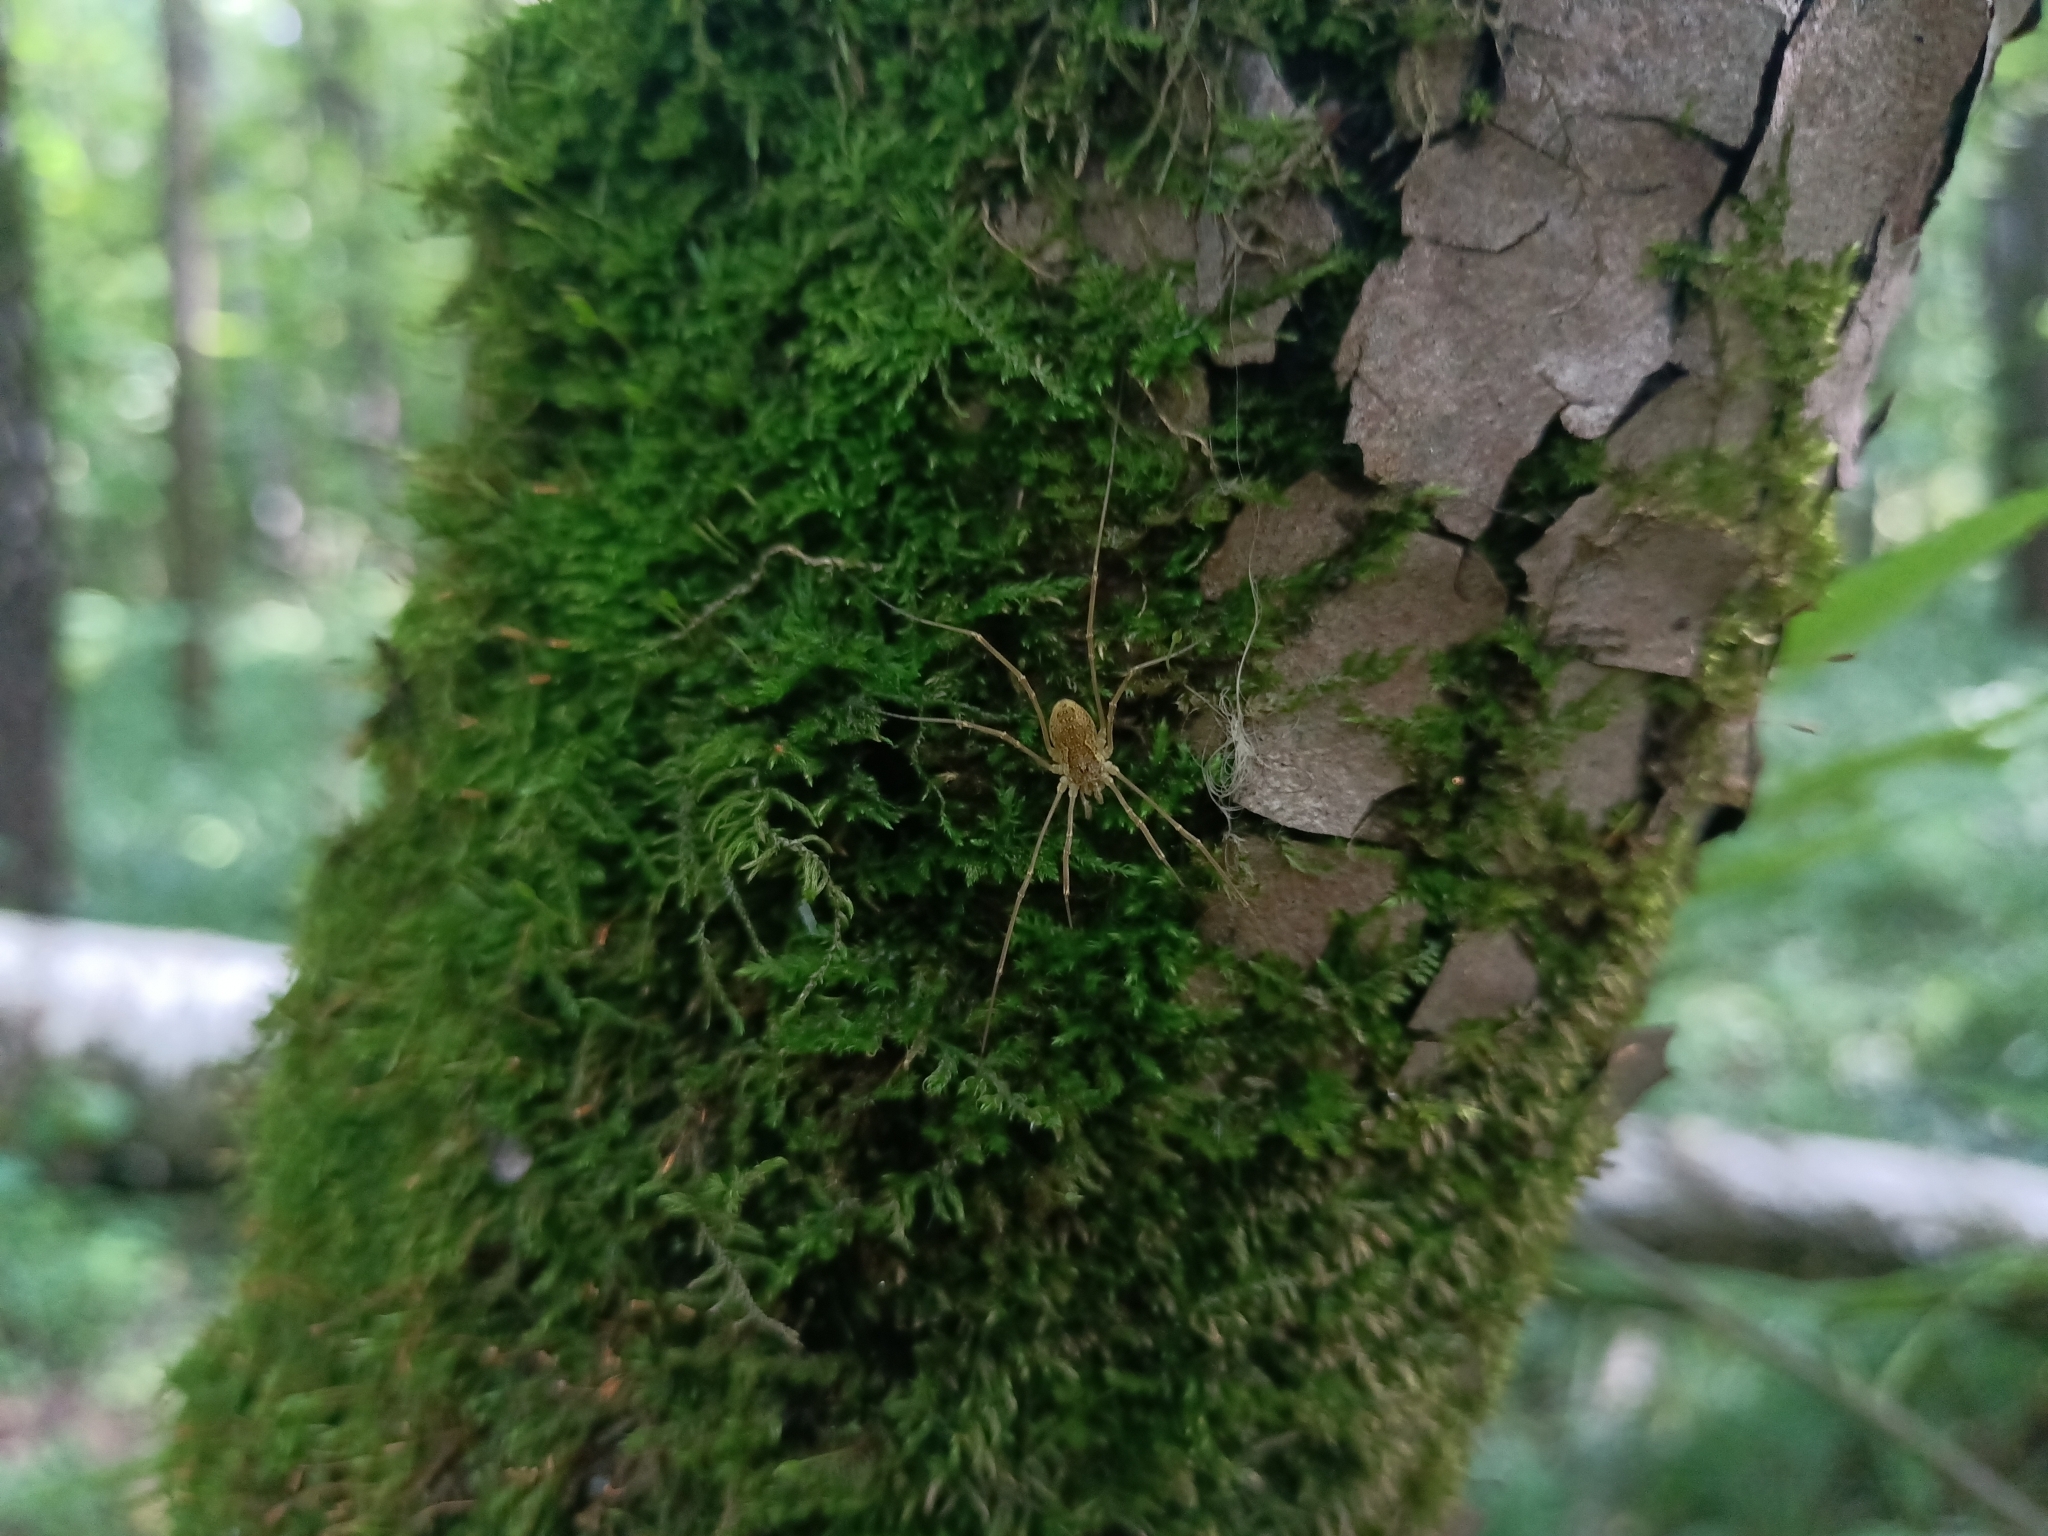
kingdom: Animalia
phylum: Arthropoda
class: Arachnida
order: Opiliones
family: Phalangiidae
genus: Mitopus
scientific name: Mitopus morio
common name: Saddleback harvestman
